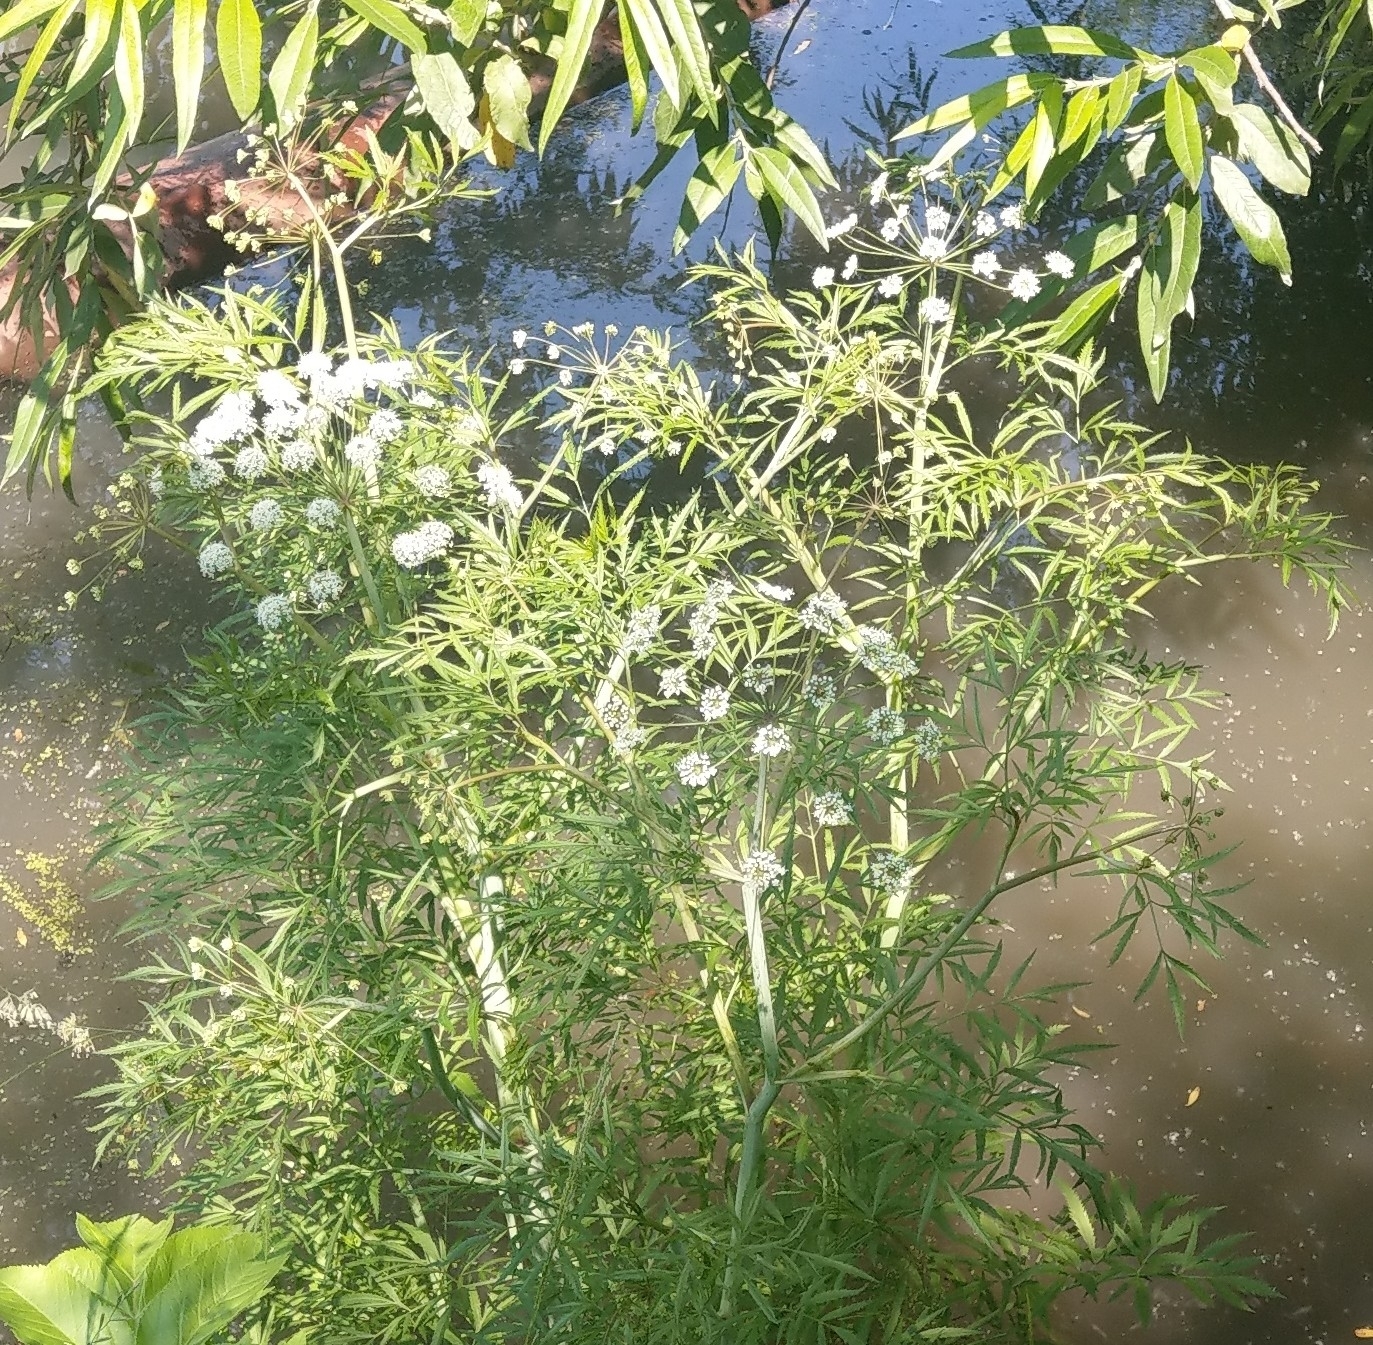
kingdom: Plantae
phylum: Tracheophyta
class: Magnoliopsida
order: Apiales
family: Apiaceae
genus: Cicuta
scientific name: Cicuta virosa
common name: Cowbane
